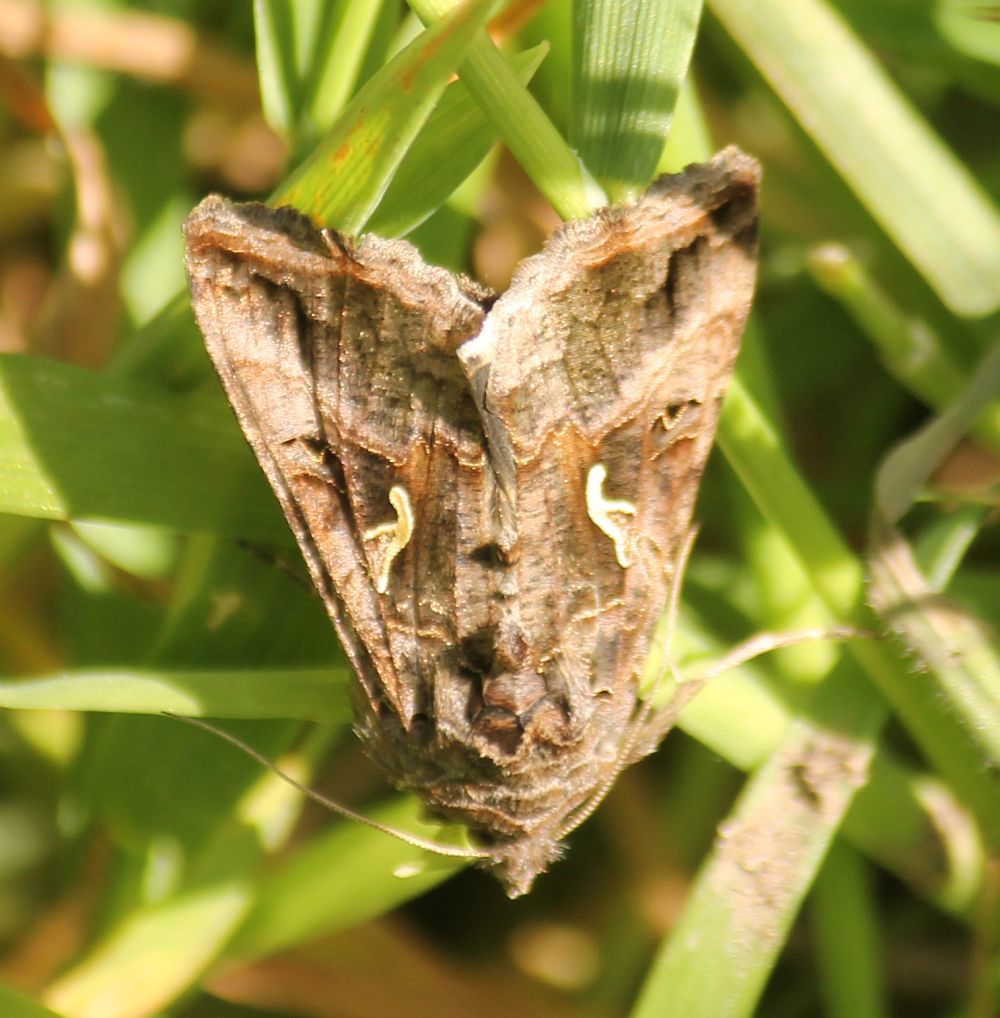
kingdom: Animalia
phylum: Arthropoda
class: Insecta
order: Lepidoptera
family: Noctuidae
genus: Autographa
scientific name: Autographa gamma
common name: Silver y
